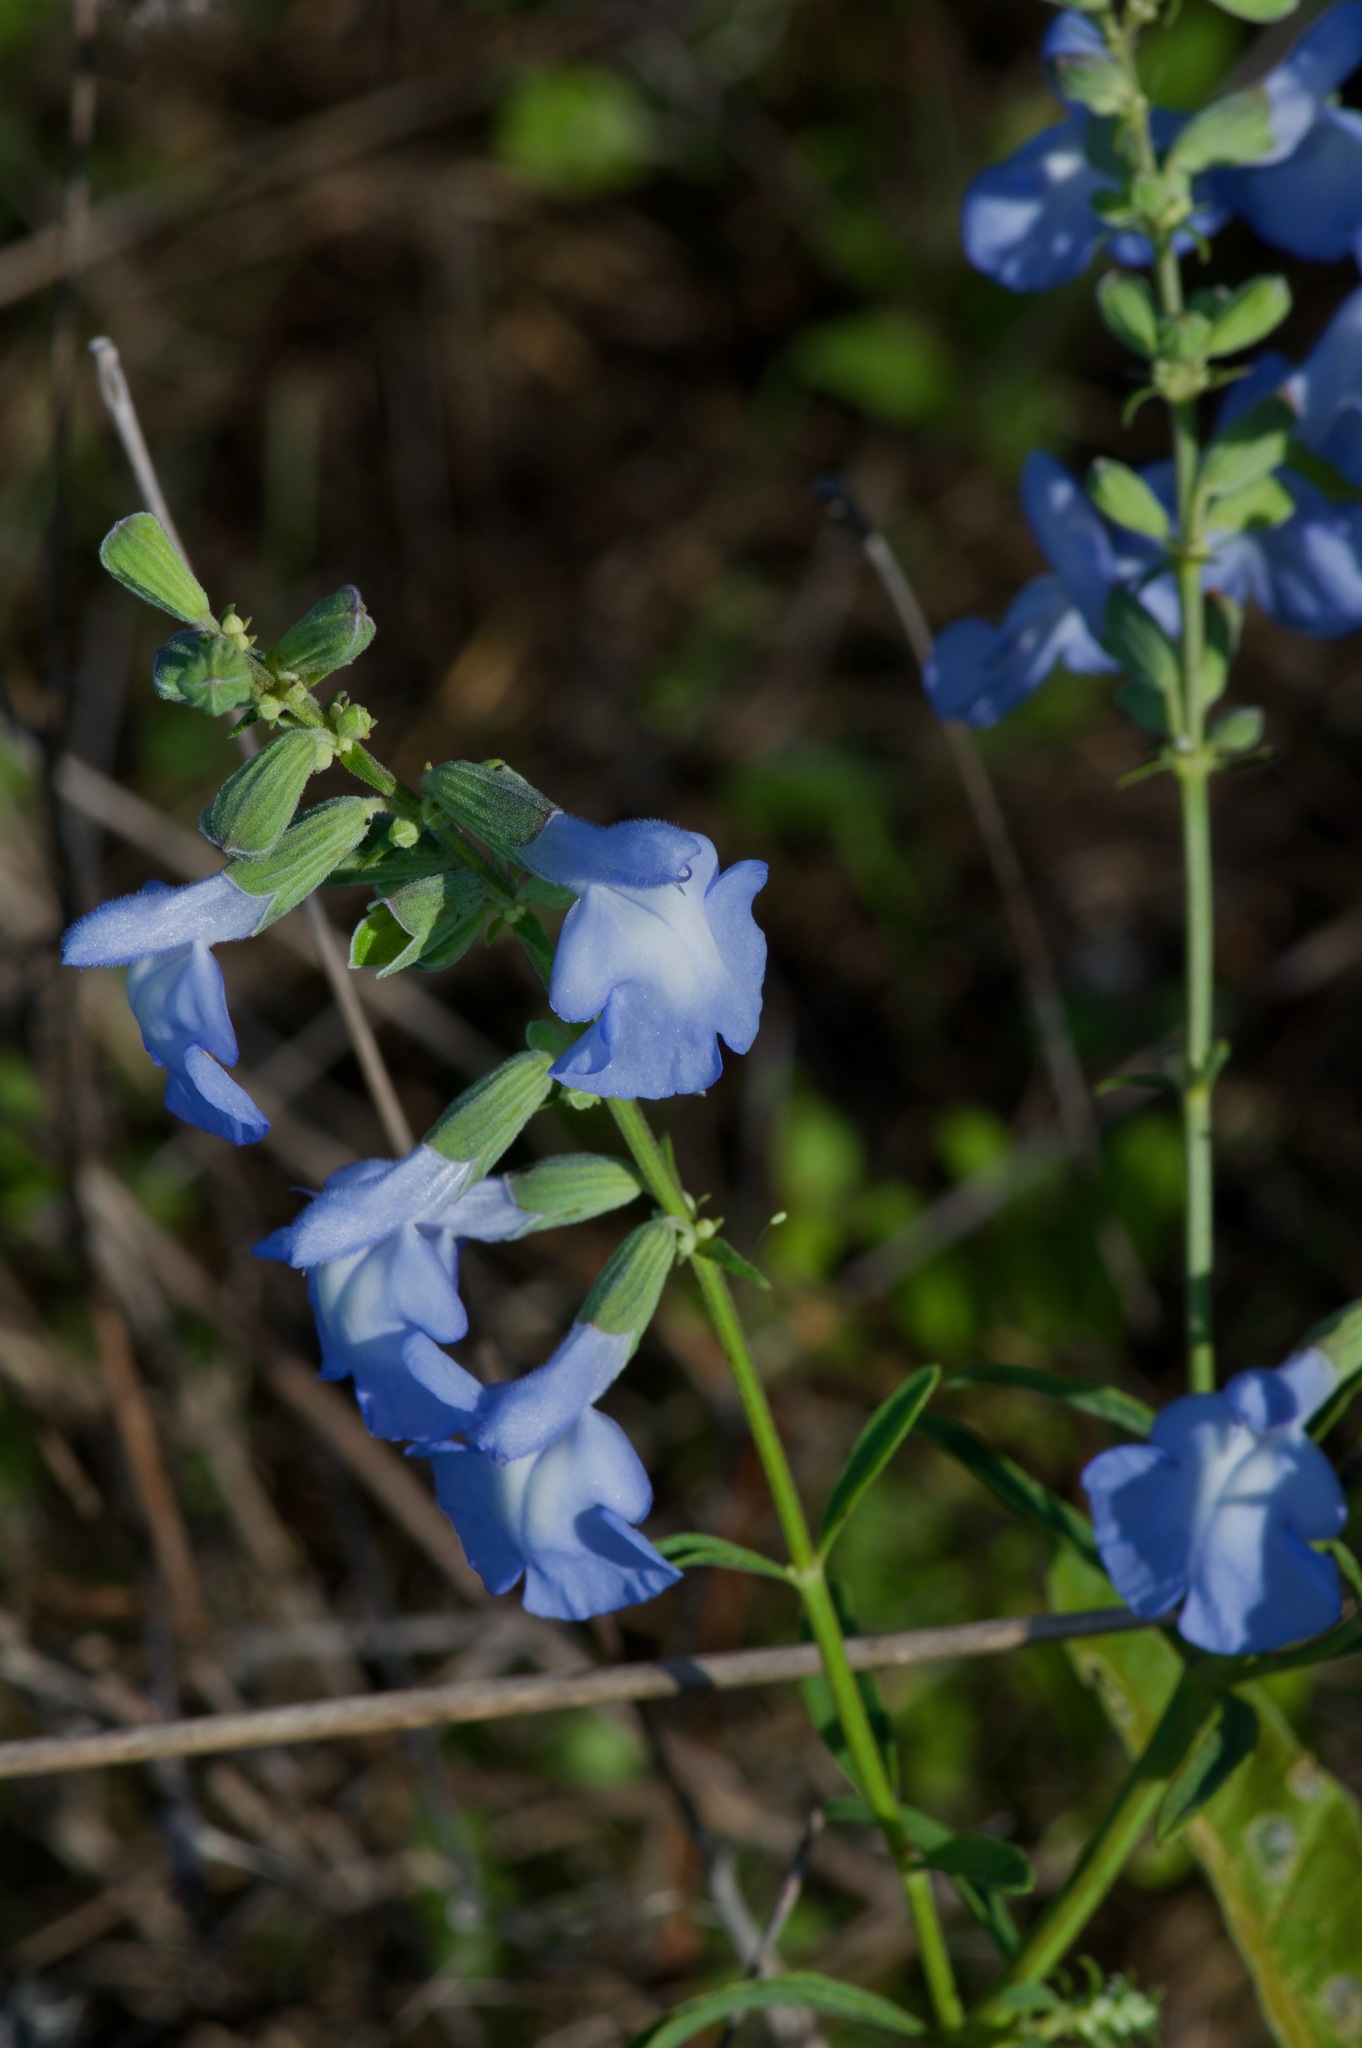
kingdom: Plantae
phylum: Tracheophyta
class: Magnoliopsida
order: Lamiales
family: Lamiaceae
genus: Salvia
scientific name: Salvia azurea
